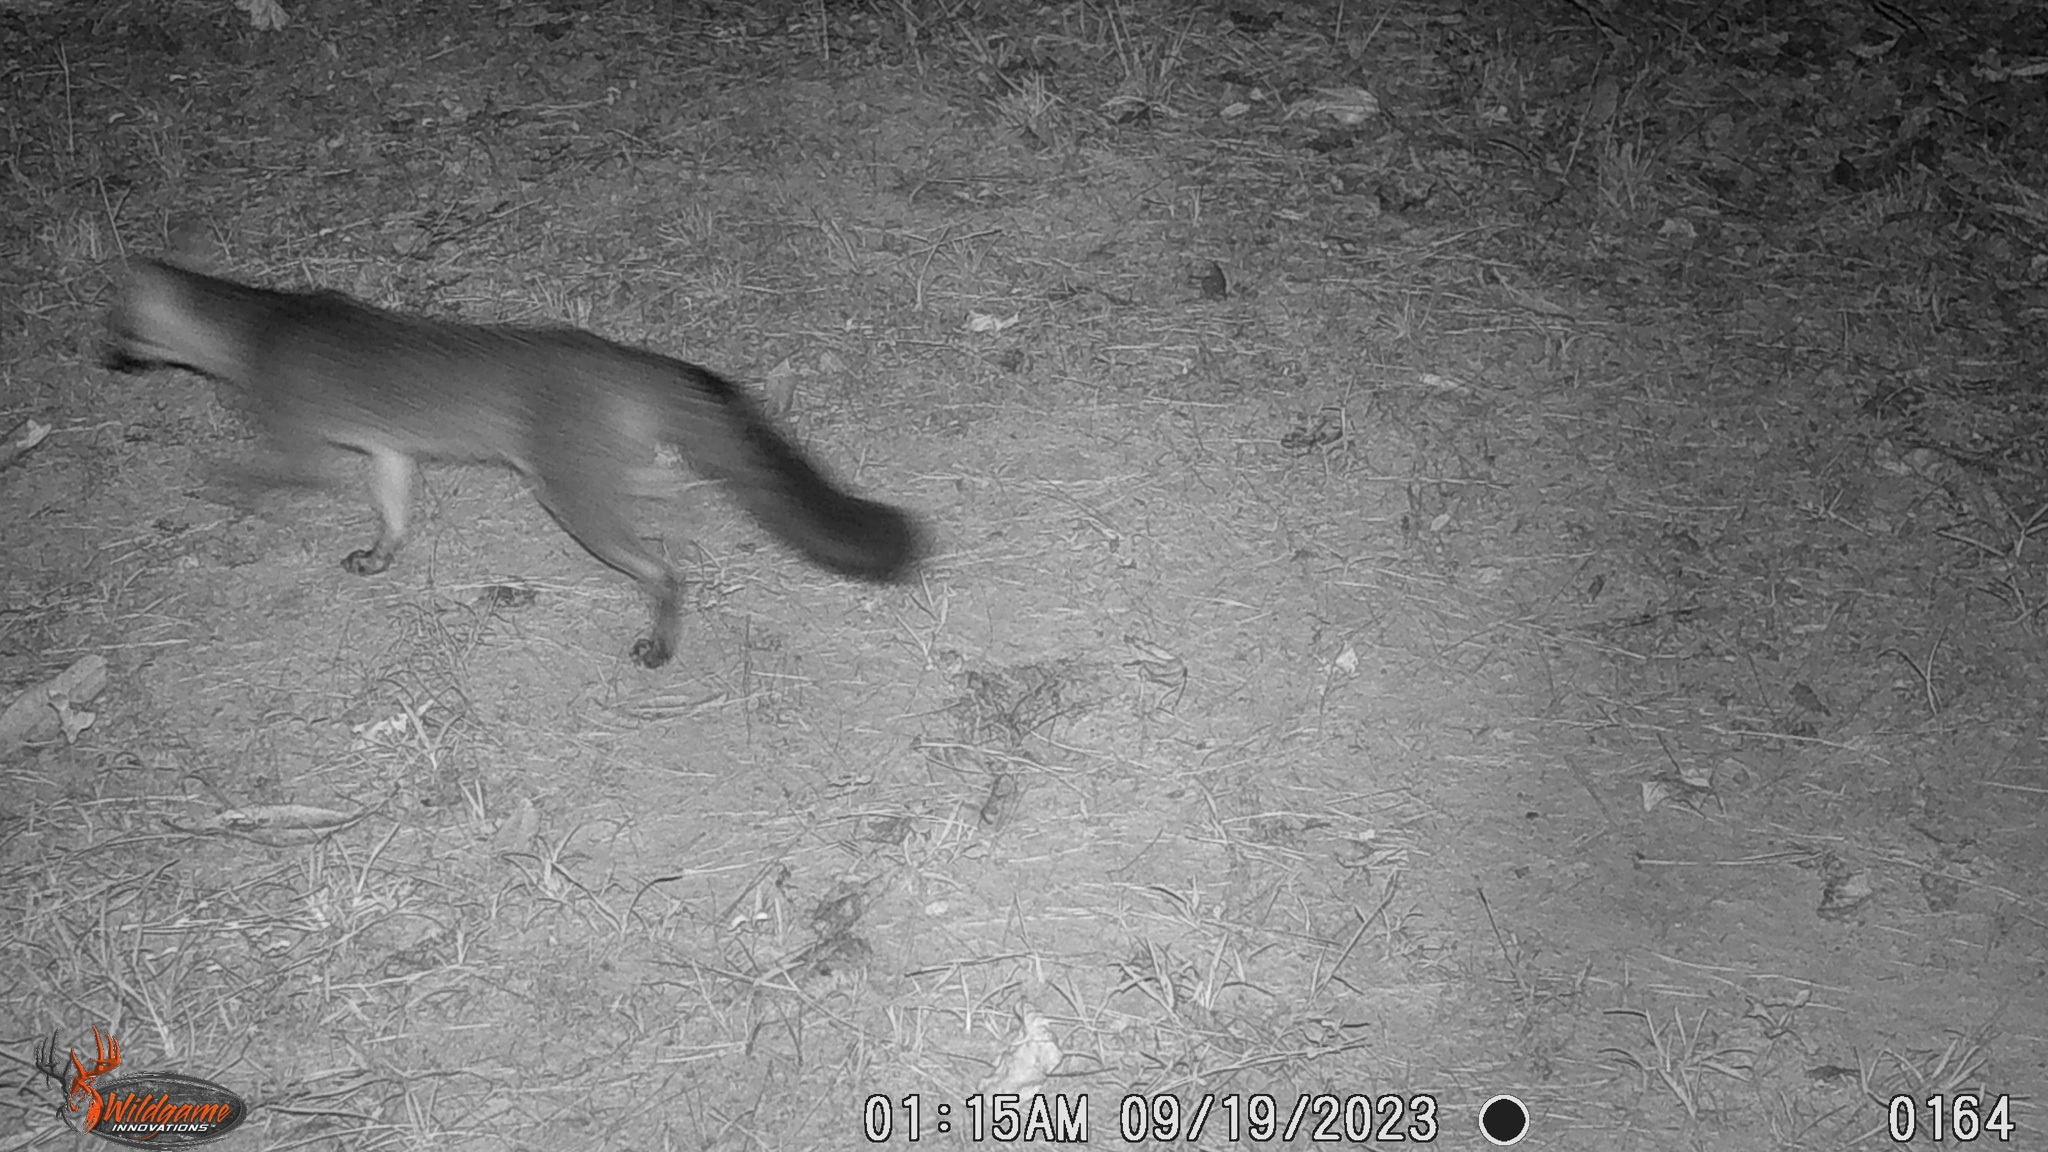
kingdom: Animalia
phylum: Chordata
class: Mammalia
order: Carnivora
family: Canidae
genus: Urocyon
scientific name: Urocyon cinereoargenteus
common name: Gray fox
